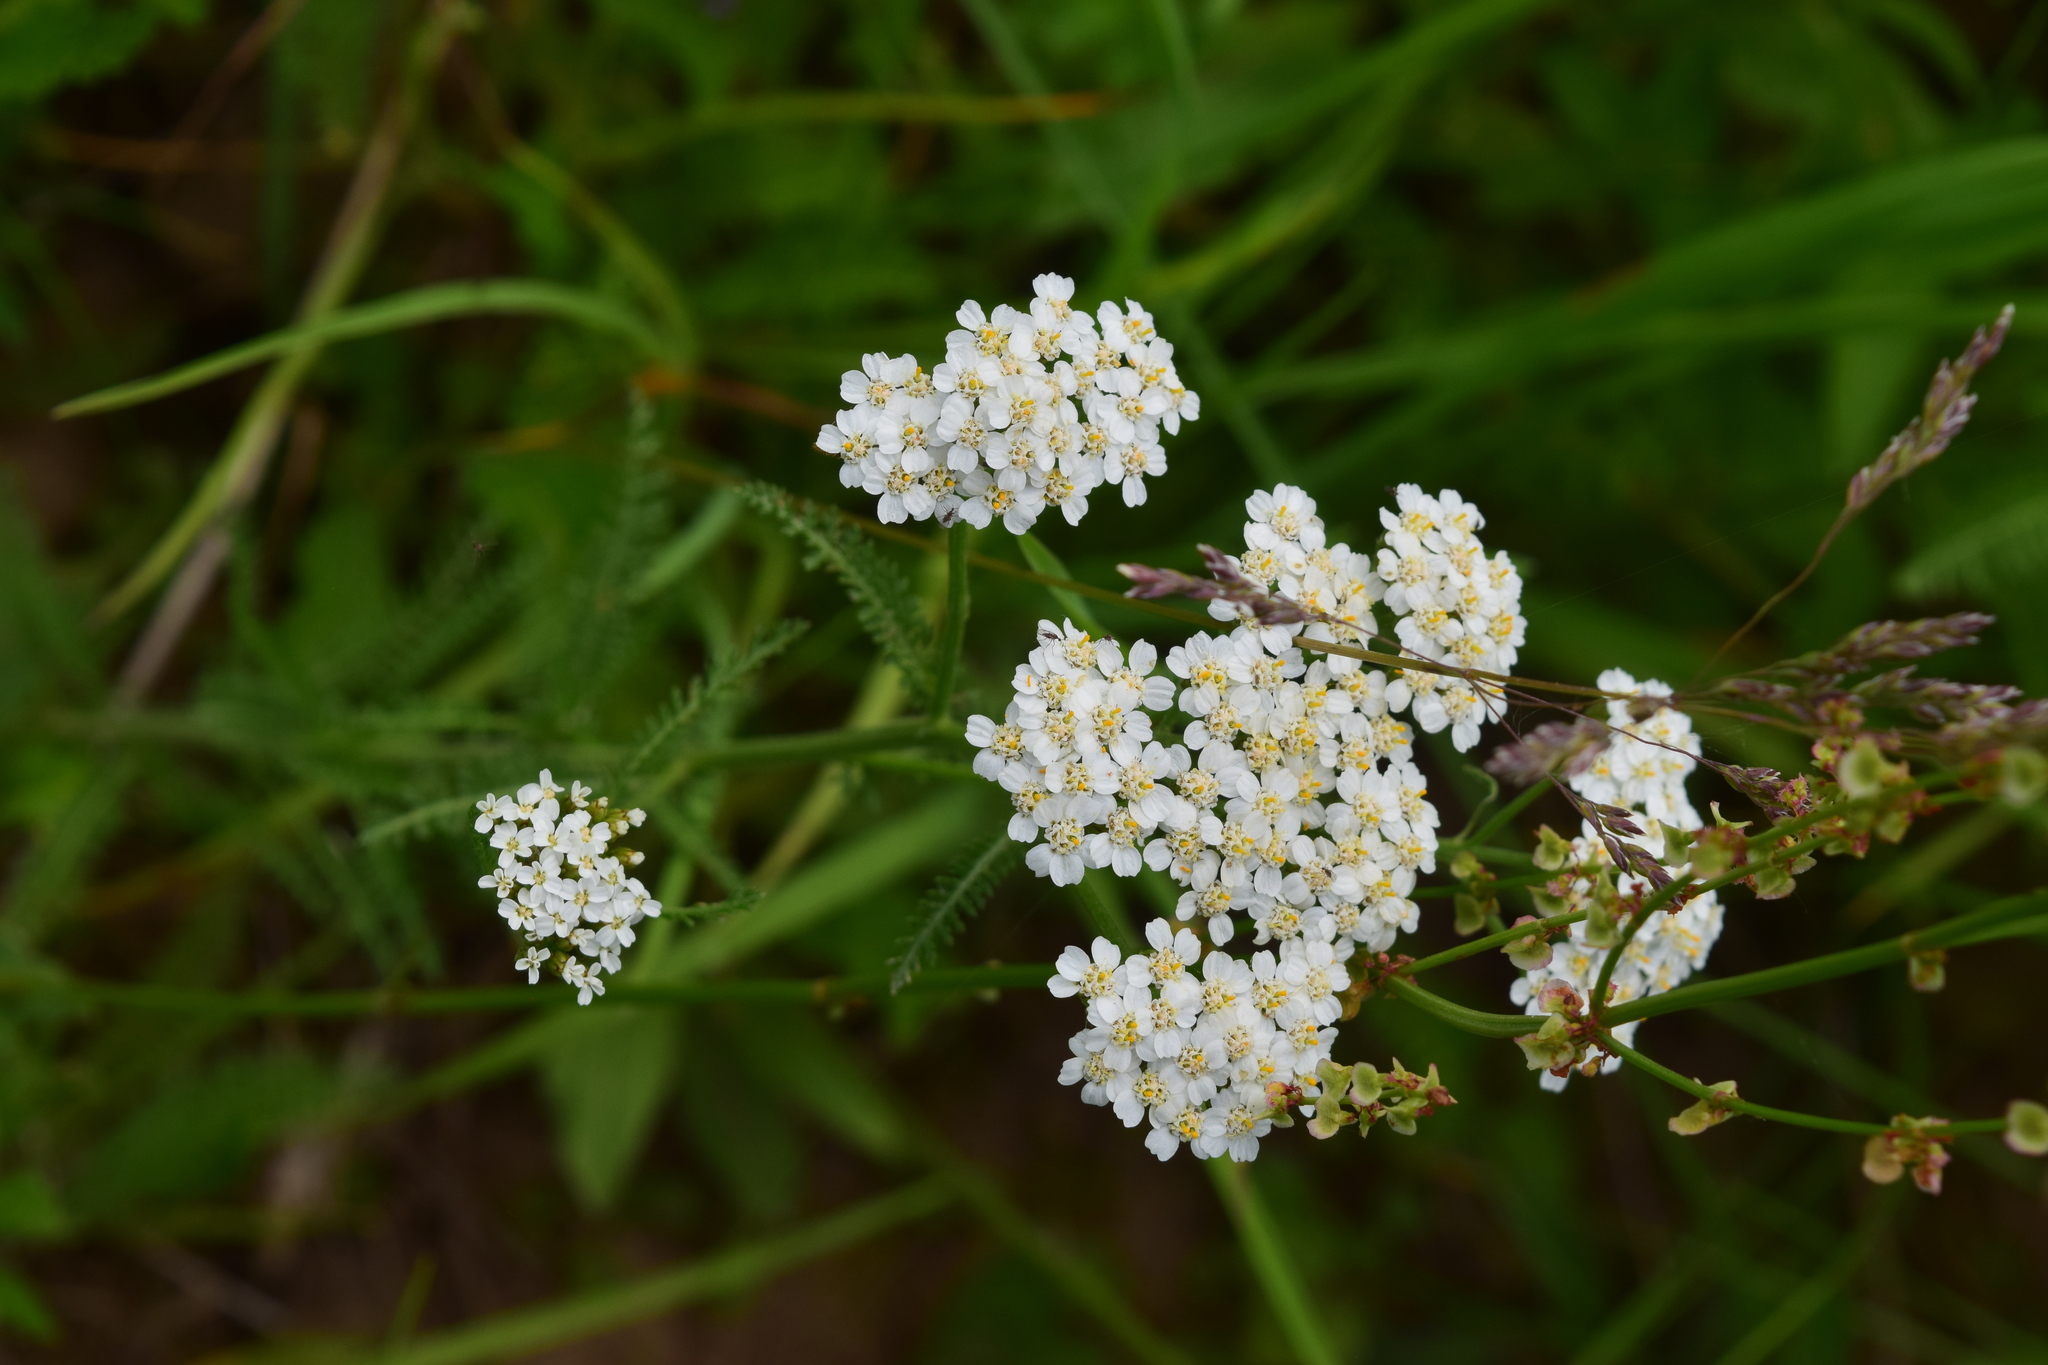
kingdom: Plantae
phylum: Tracheophyta
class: Magnoliopsida
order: Asterales
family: Asteraceae
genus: Achillea
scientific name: Achillea millefolium
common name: Yarrow
